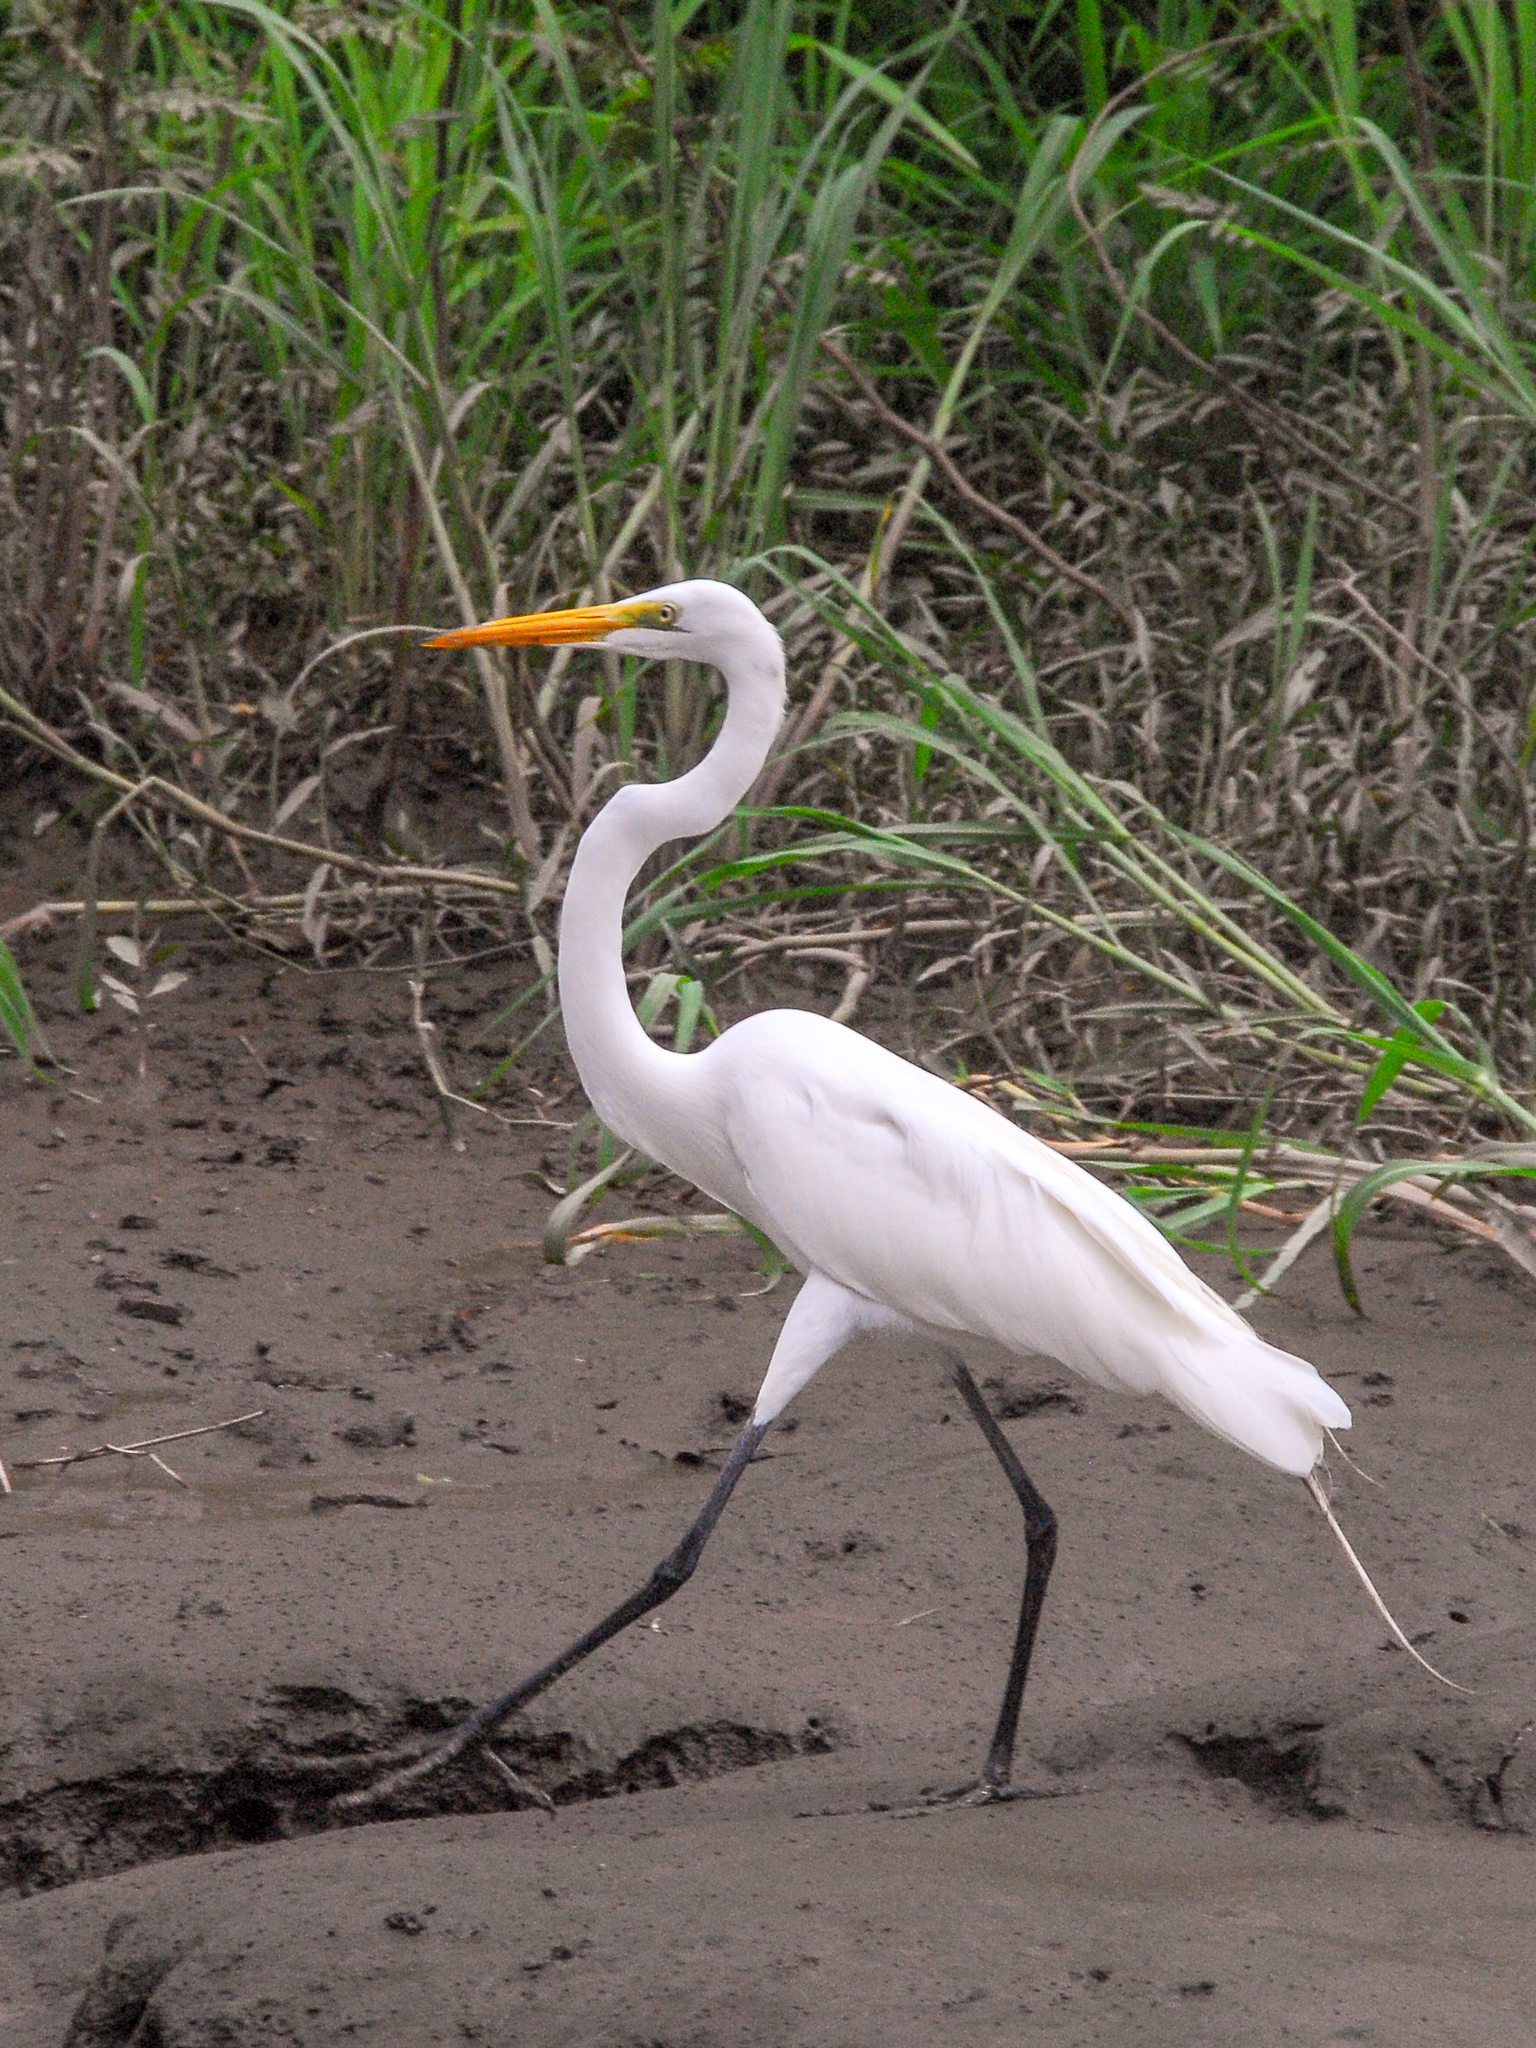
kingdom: Animalia
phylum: Chordata
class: Aves
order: Pelecaniformes
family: Ardeidae
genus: Ardea
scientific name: Ardea alba
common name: Great egret
